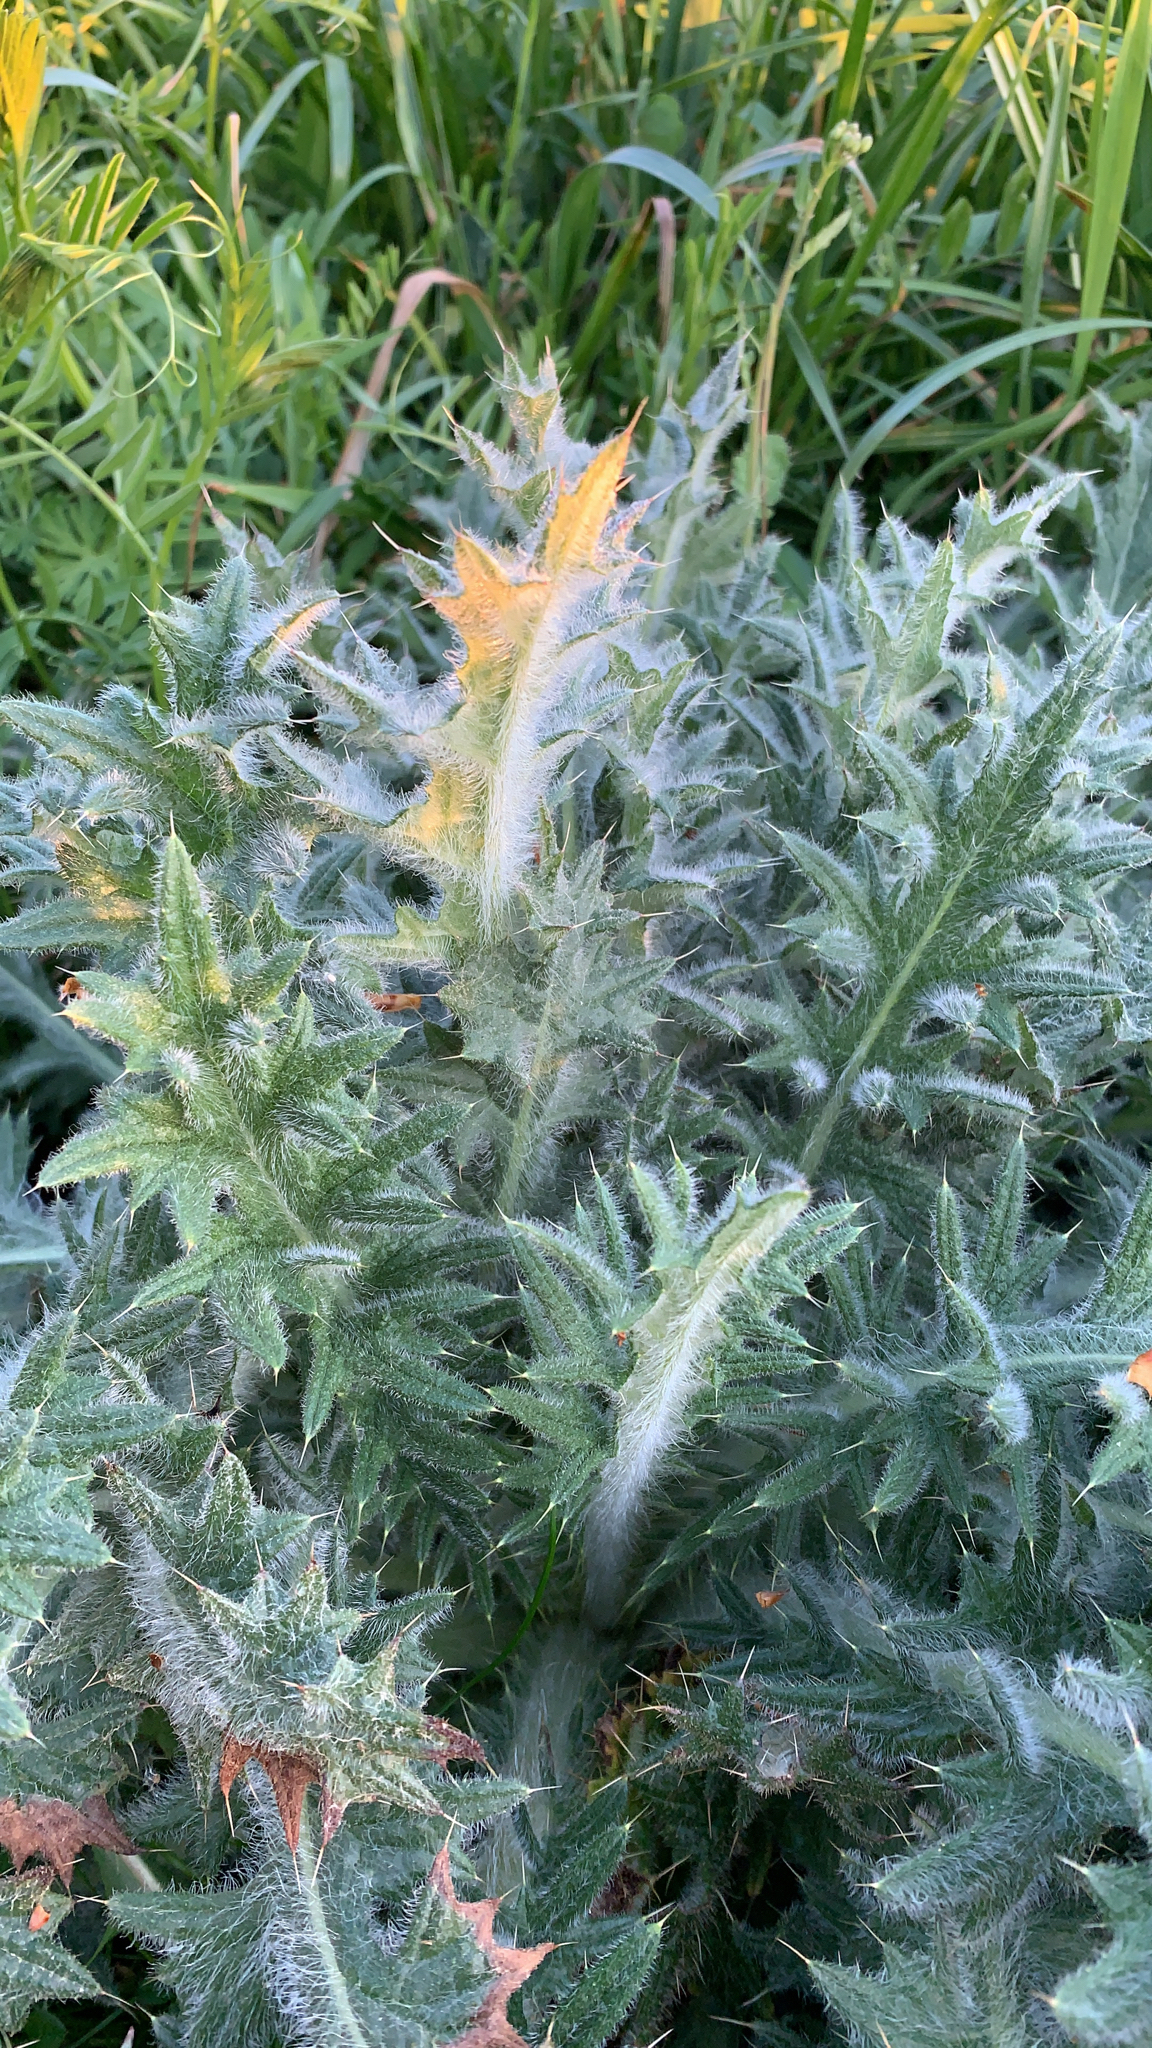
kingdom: Plantae
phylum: Tracheophyta
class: Magnoliopsida
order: Asterales
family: Asteraceae
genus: Cirsium
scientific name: Cirsium vulgare
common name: Bull thistle
